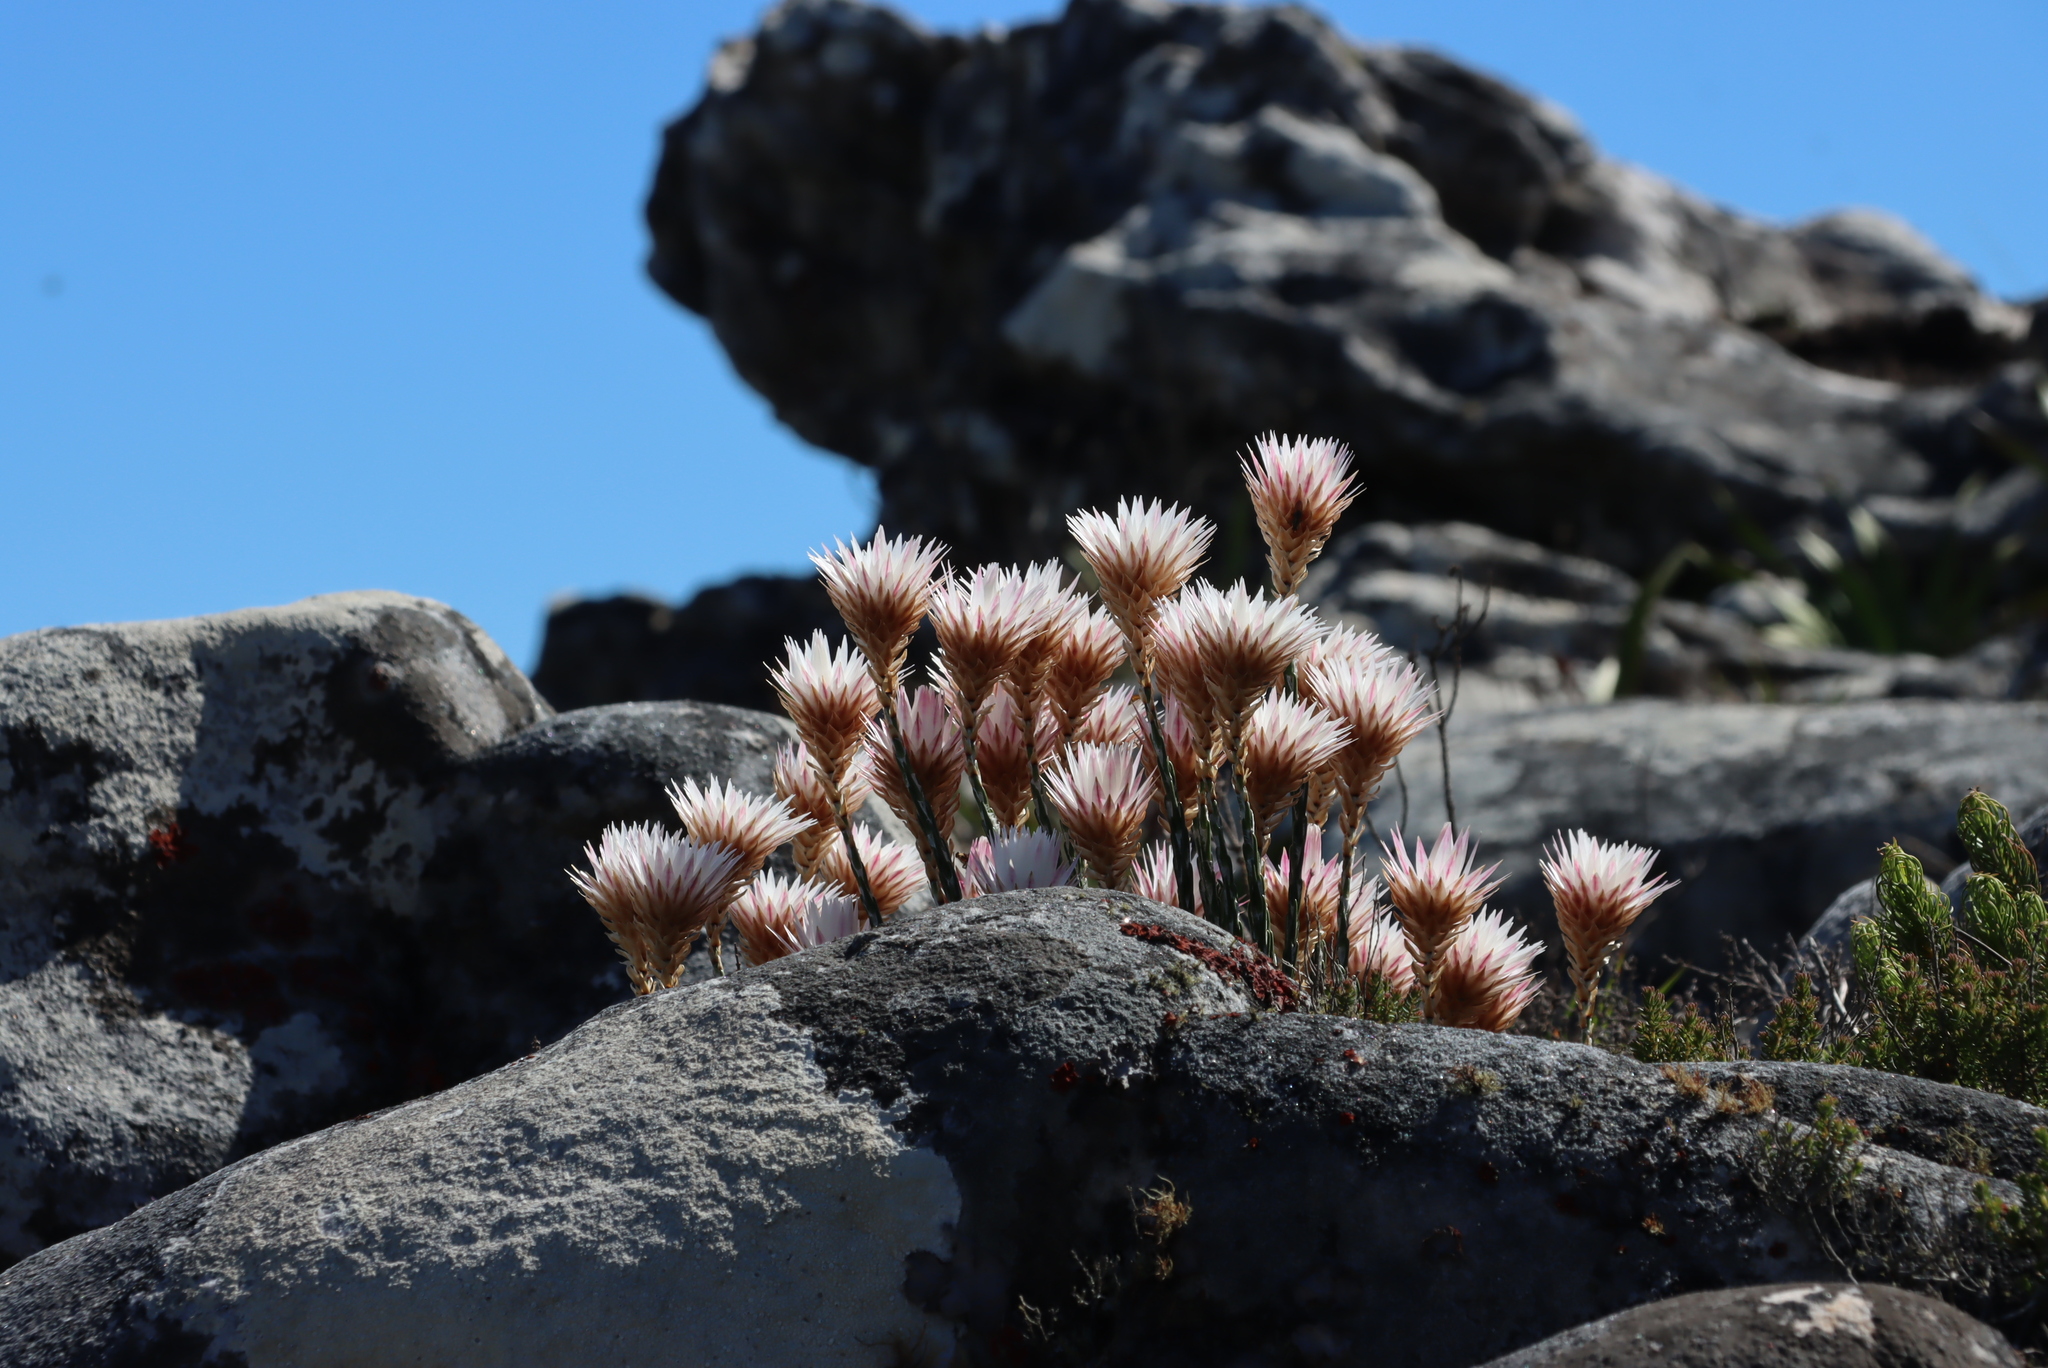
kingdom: Plantae
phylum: Tracheophyta
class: Magnoliopsida
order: Asterales
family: Asteraceae
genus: Edmondia
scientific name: Edmondia pinifolia
